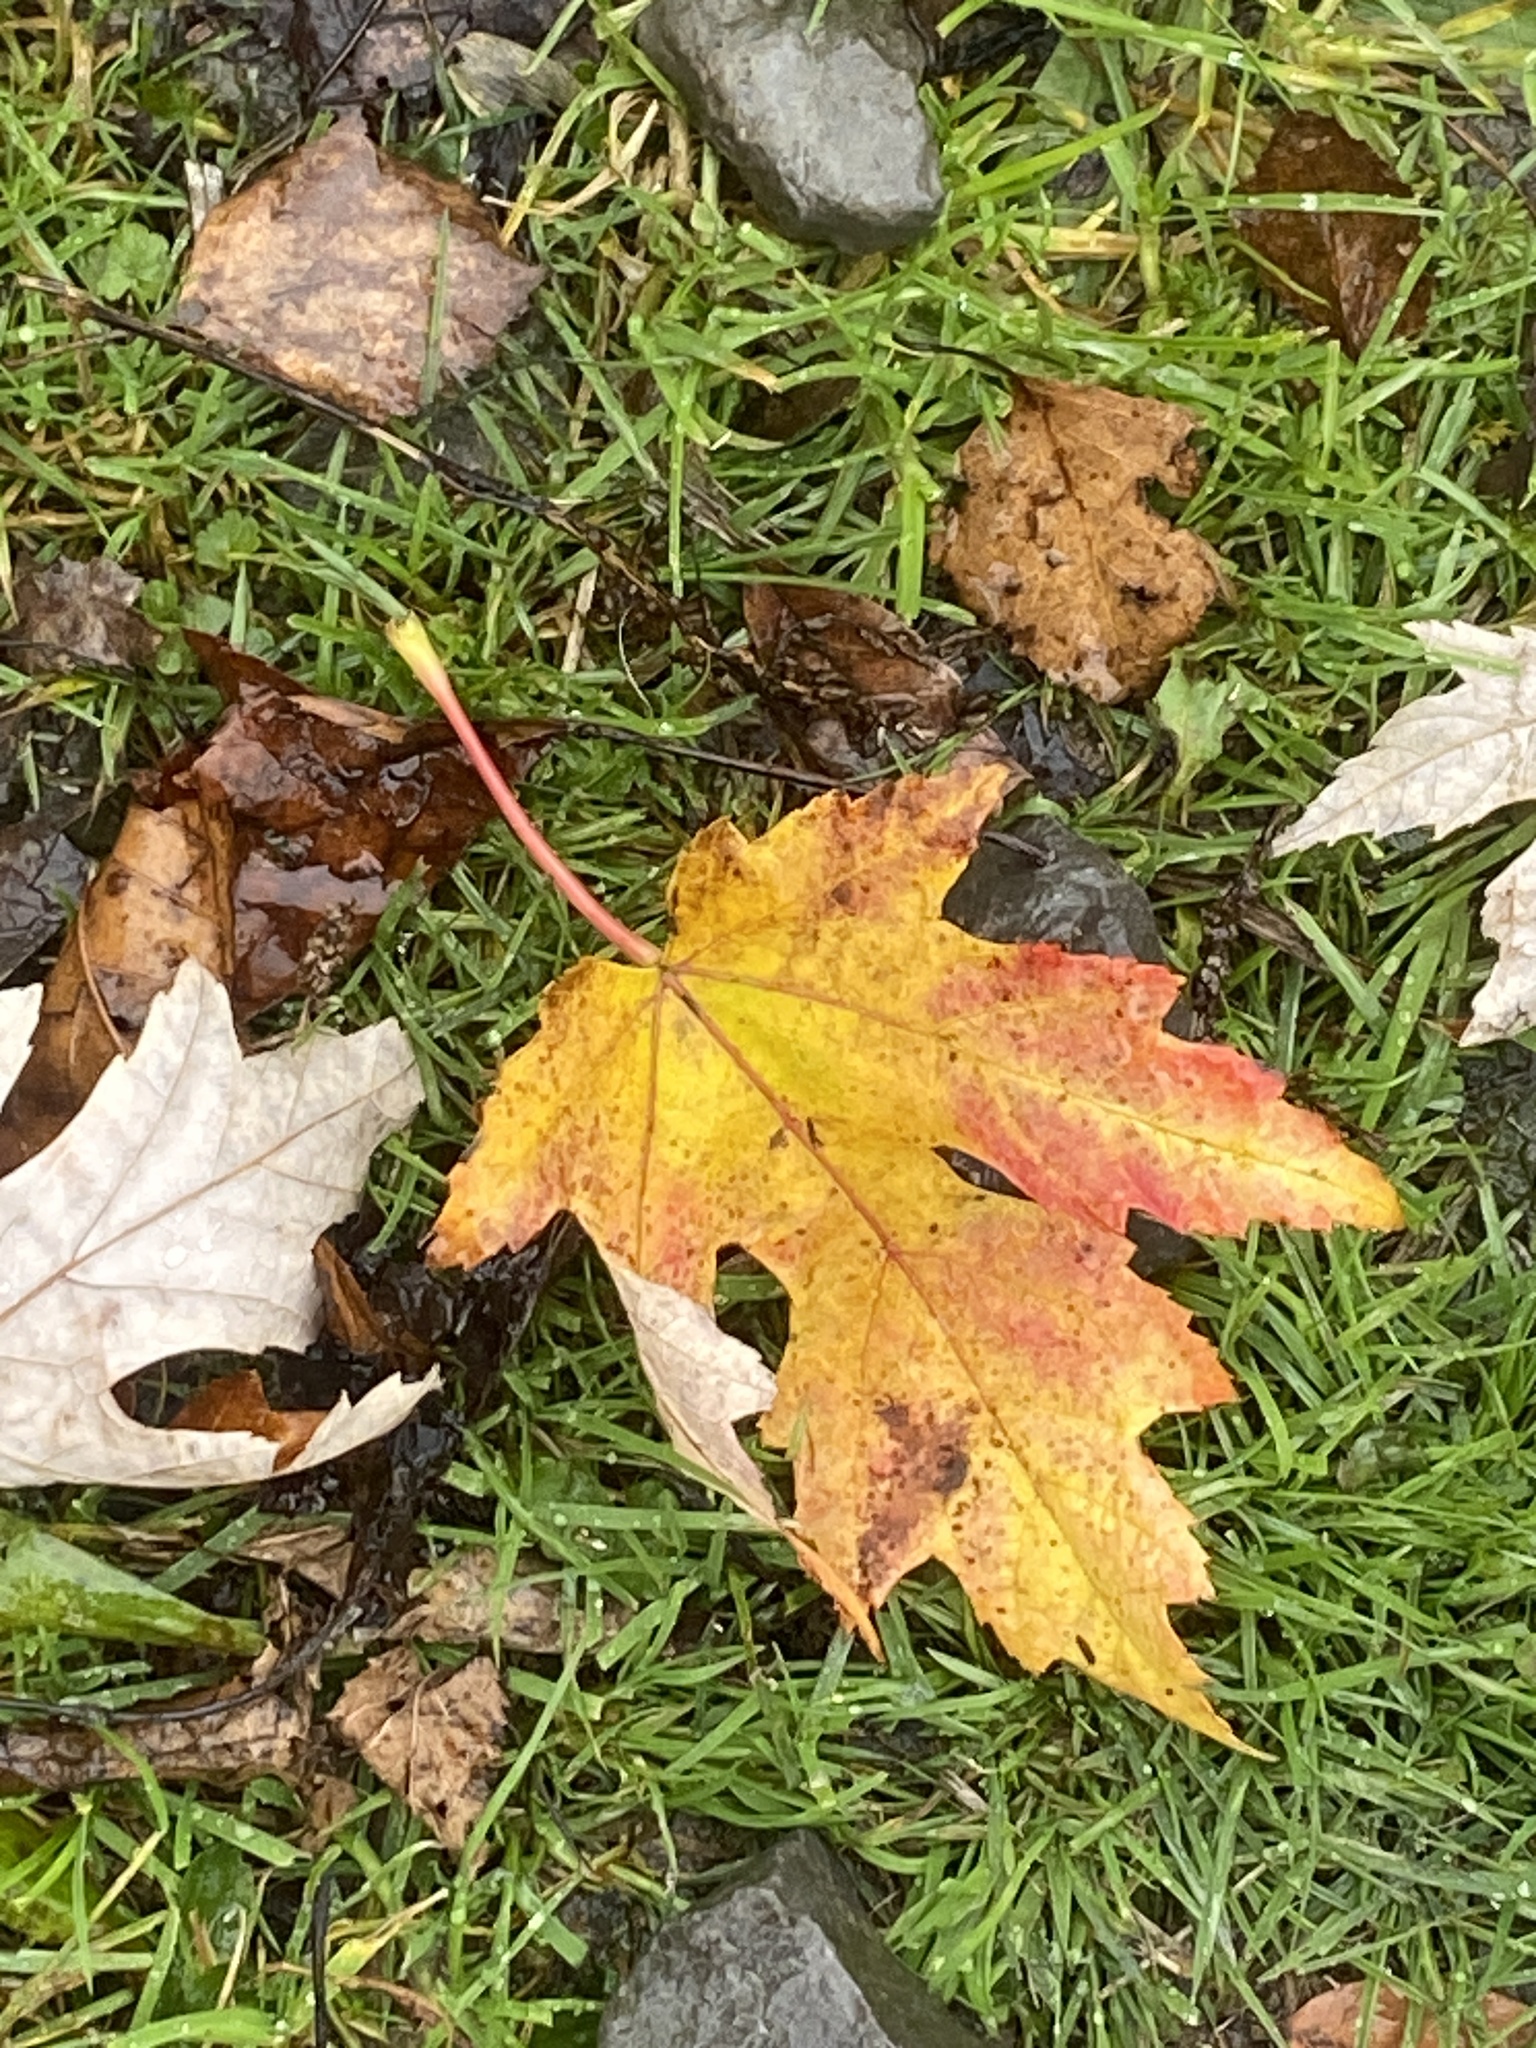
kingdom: Plantae
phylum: Tracheophyta
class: Magnoliopsida
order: Sapindales
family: Sapindaceae
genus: Acer
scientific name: Acer saccharinum
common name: Silver maple
